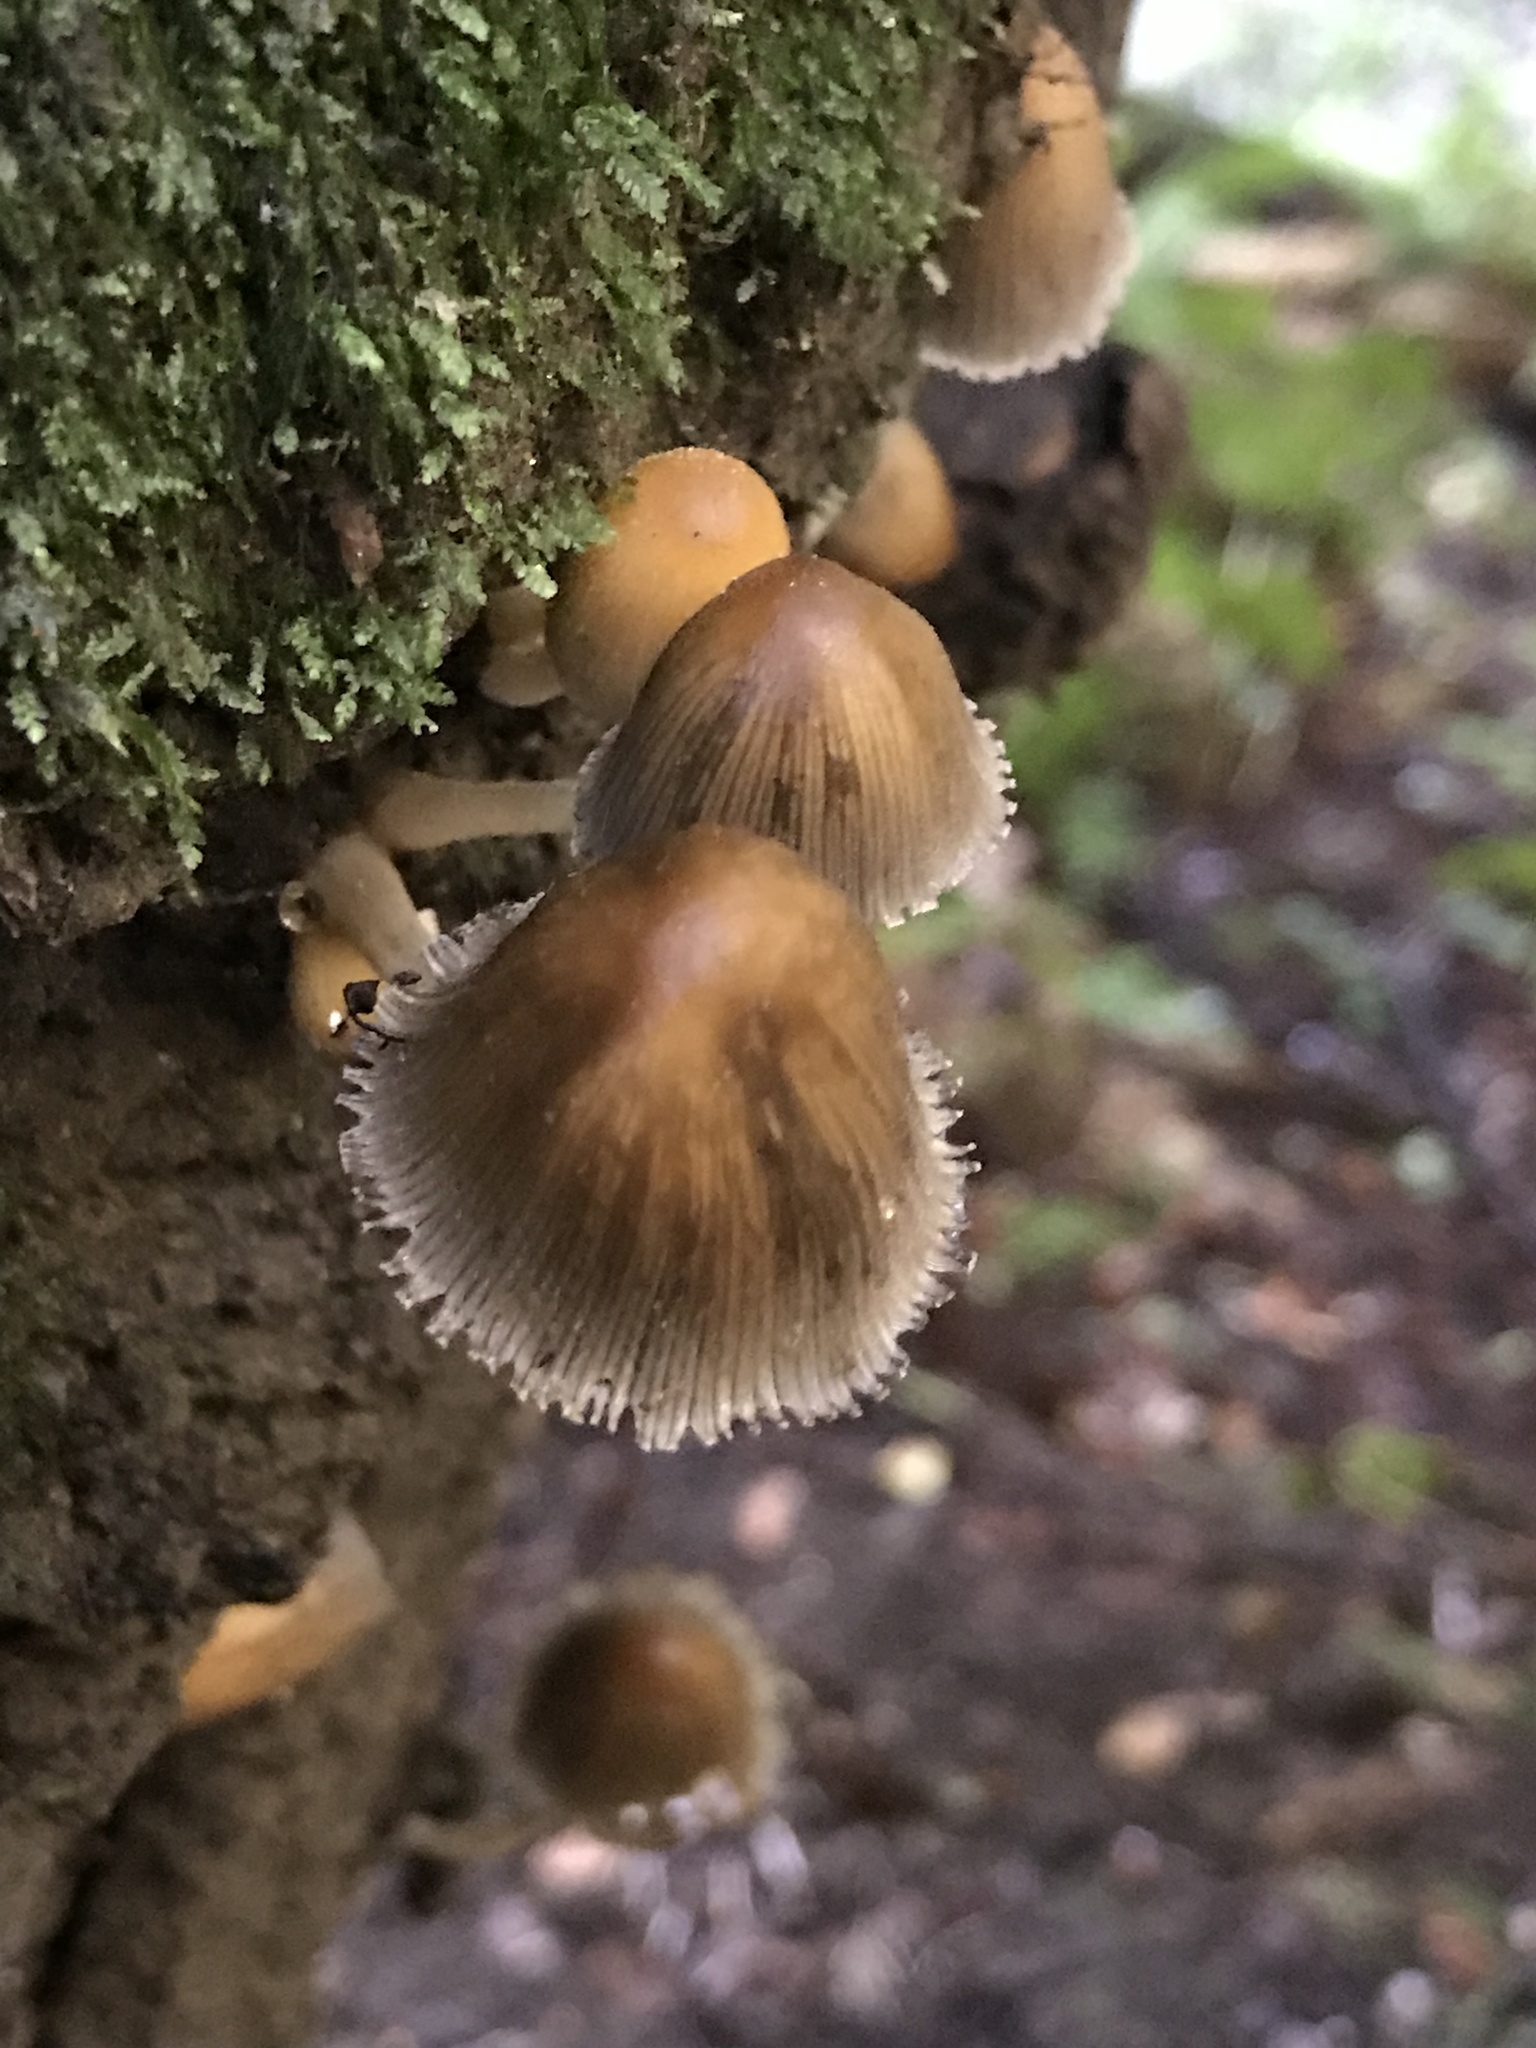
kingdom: Fungi
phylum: Basidiomycota
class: Agaricomycetes
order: Agaricales
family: Psathyrellaceae
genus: Coprinellus
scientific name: Coprinellus micaceus
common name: Glistening ink-cap
